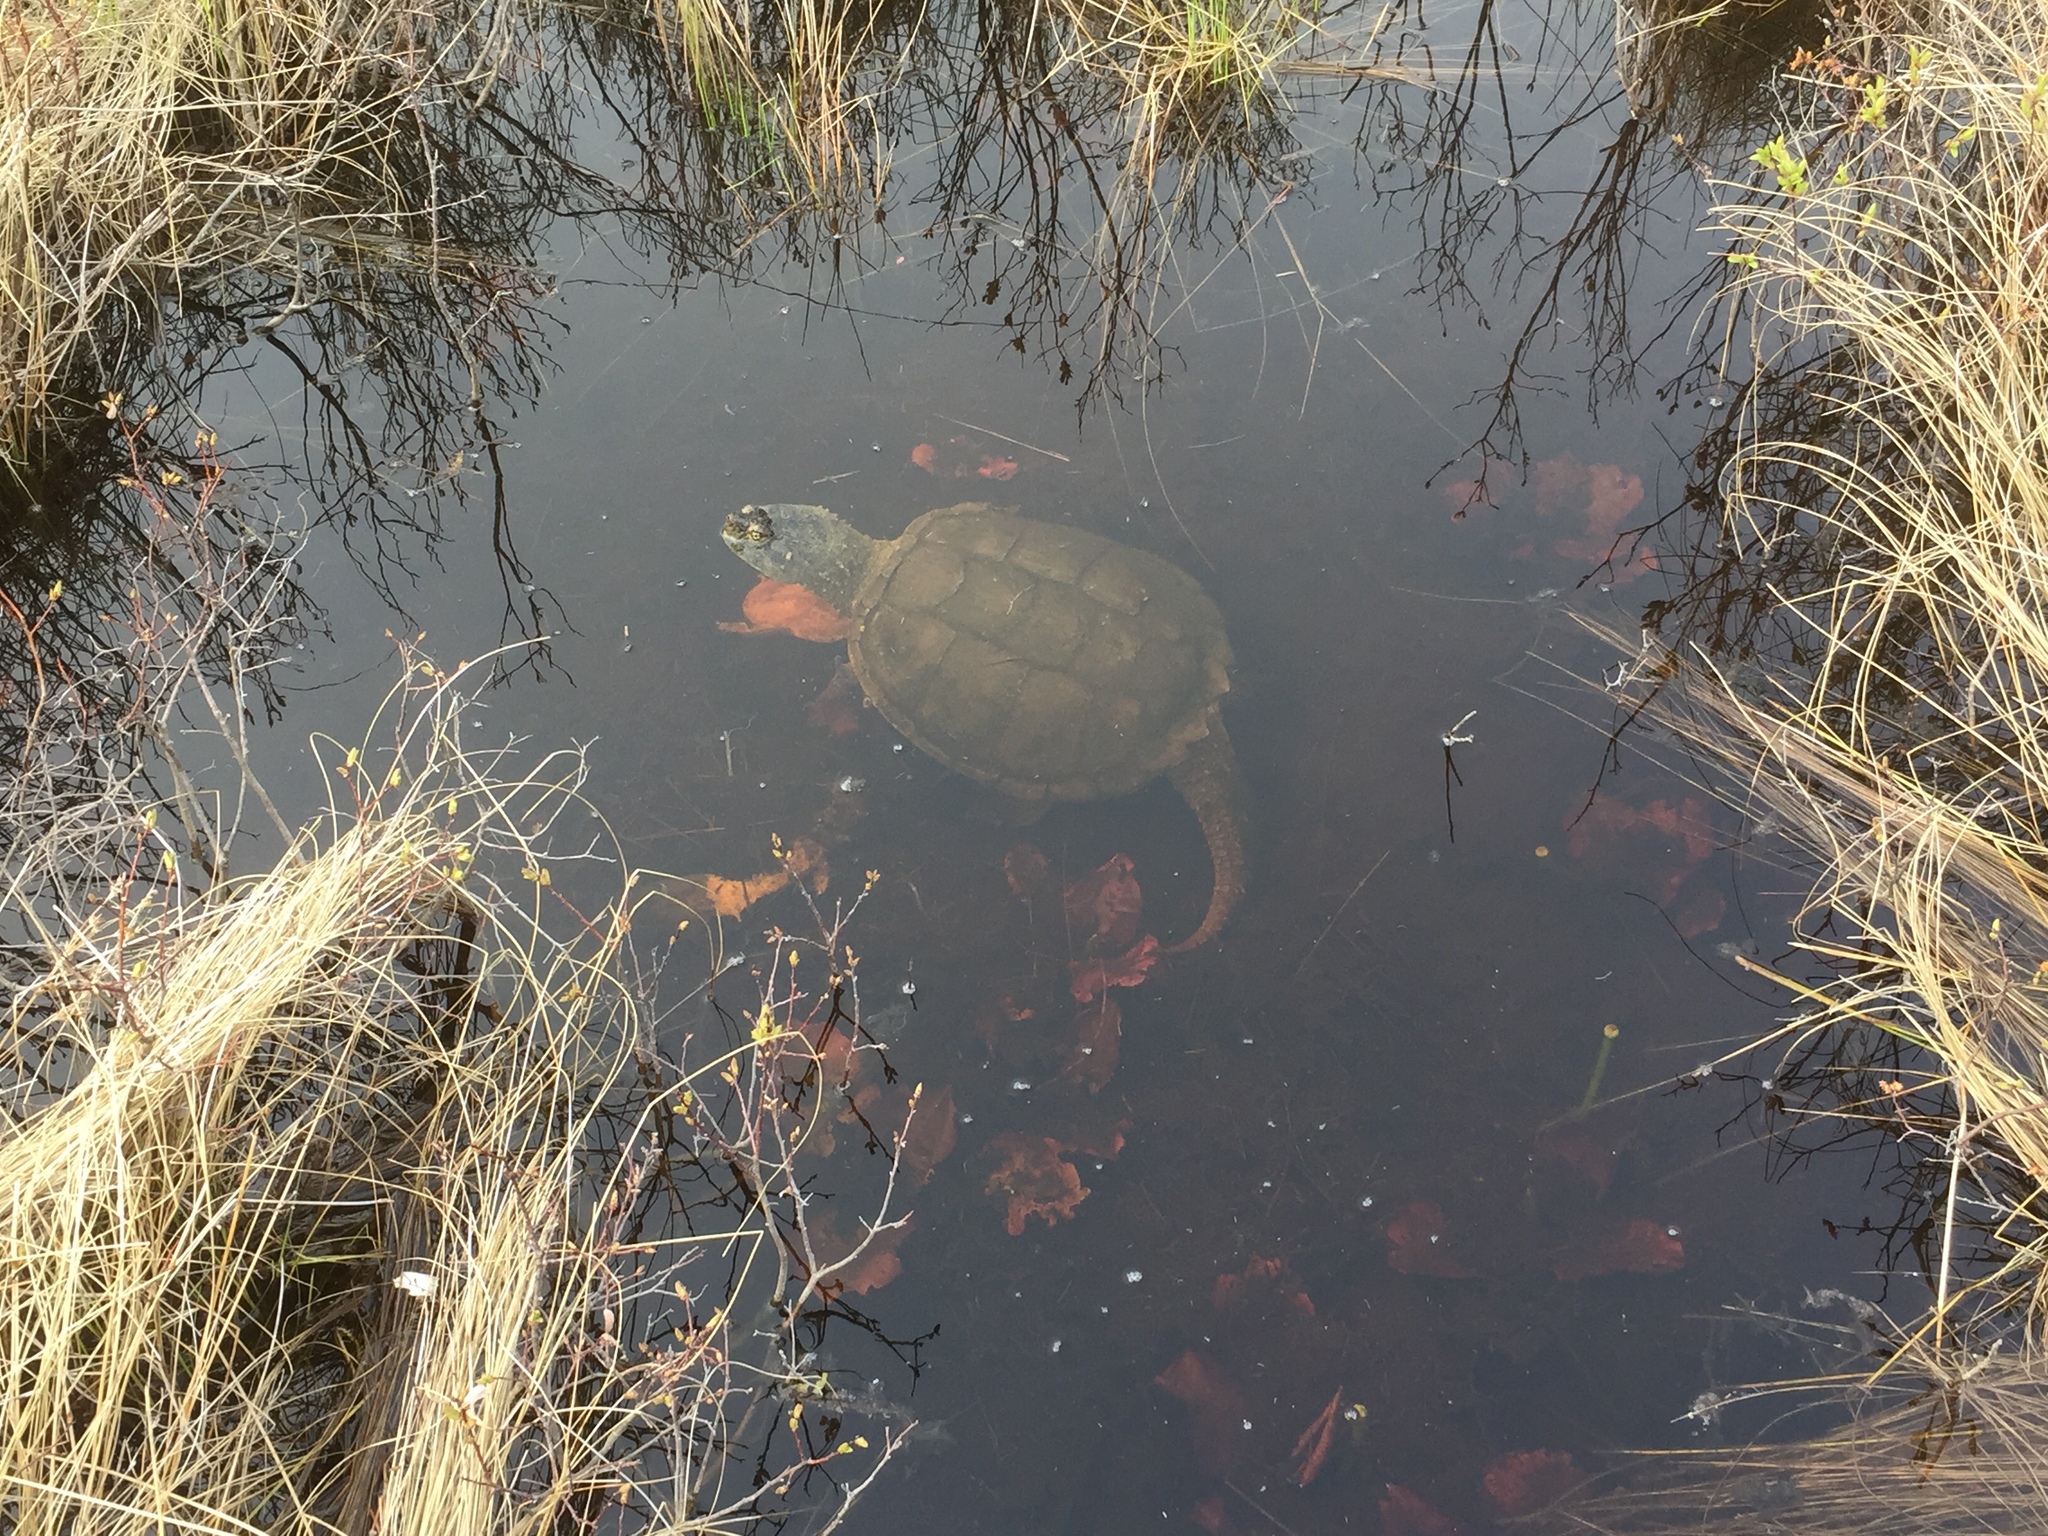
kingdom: Animalia
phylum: Chordata
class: Testudines
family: Chelydridae
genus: Chelydra
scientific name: Chelydra serpentina
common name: Common snapping turtle
